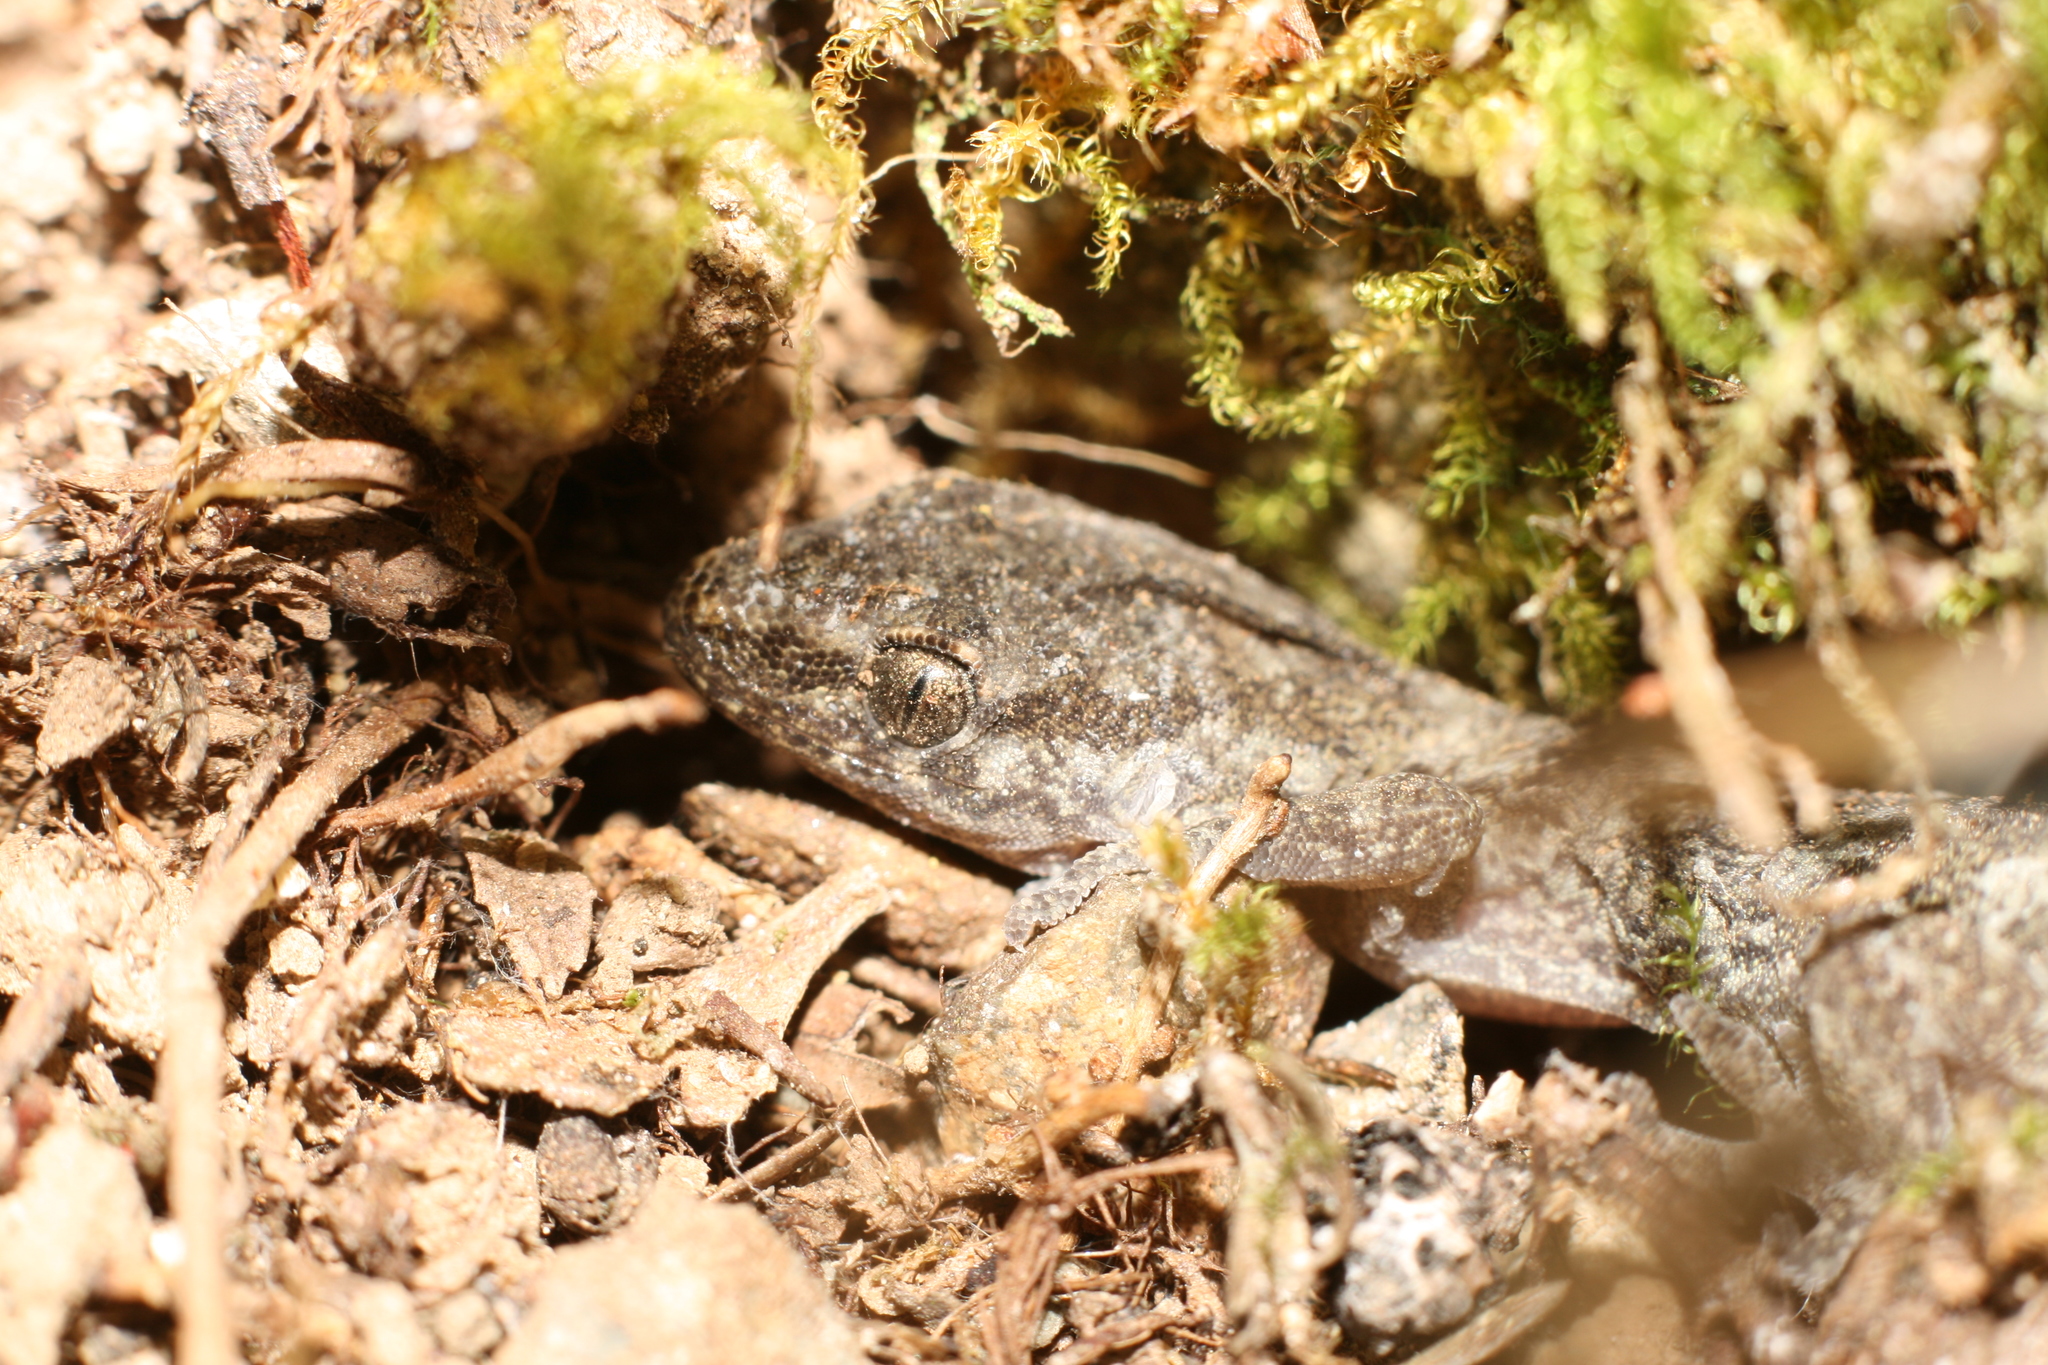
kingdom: Animalia
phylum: Chordata
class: Squamata
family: Diplodactylidae
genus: Woodworthia
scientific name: Woodworthia
